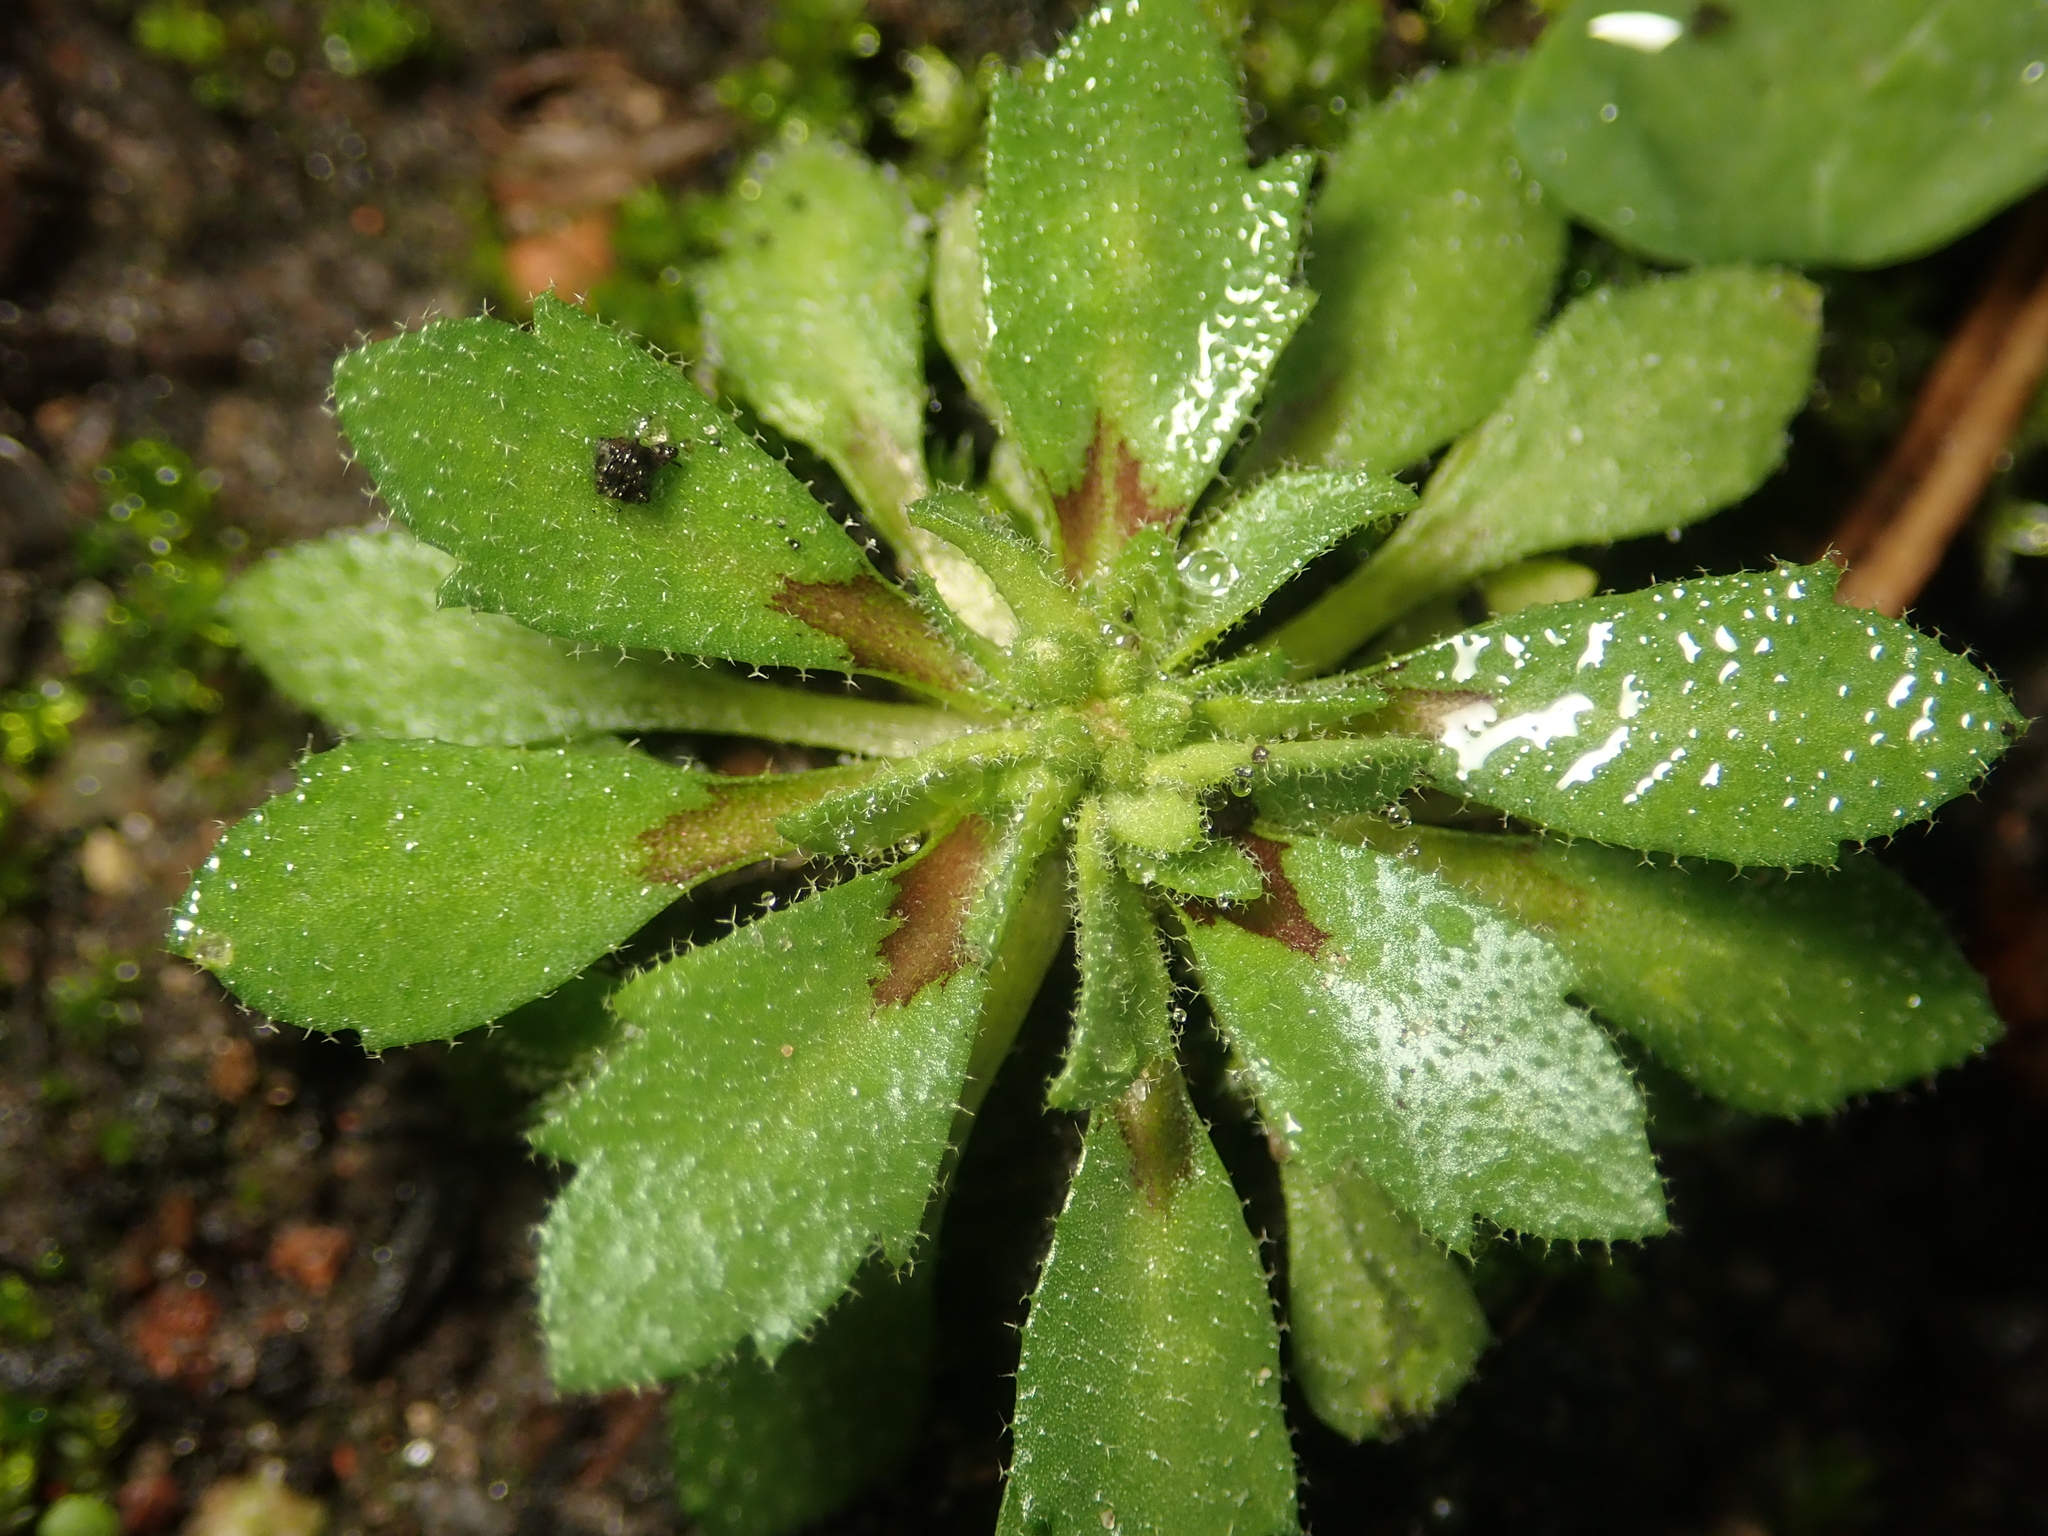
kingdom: Plantae
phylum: Tracheophyta
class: Magnoliopsida
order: Brassicales
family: Brassicaceae
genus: Draba
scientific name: Draba verna
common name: Spring draba
